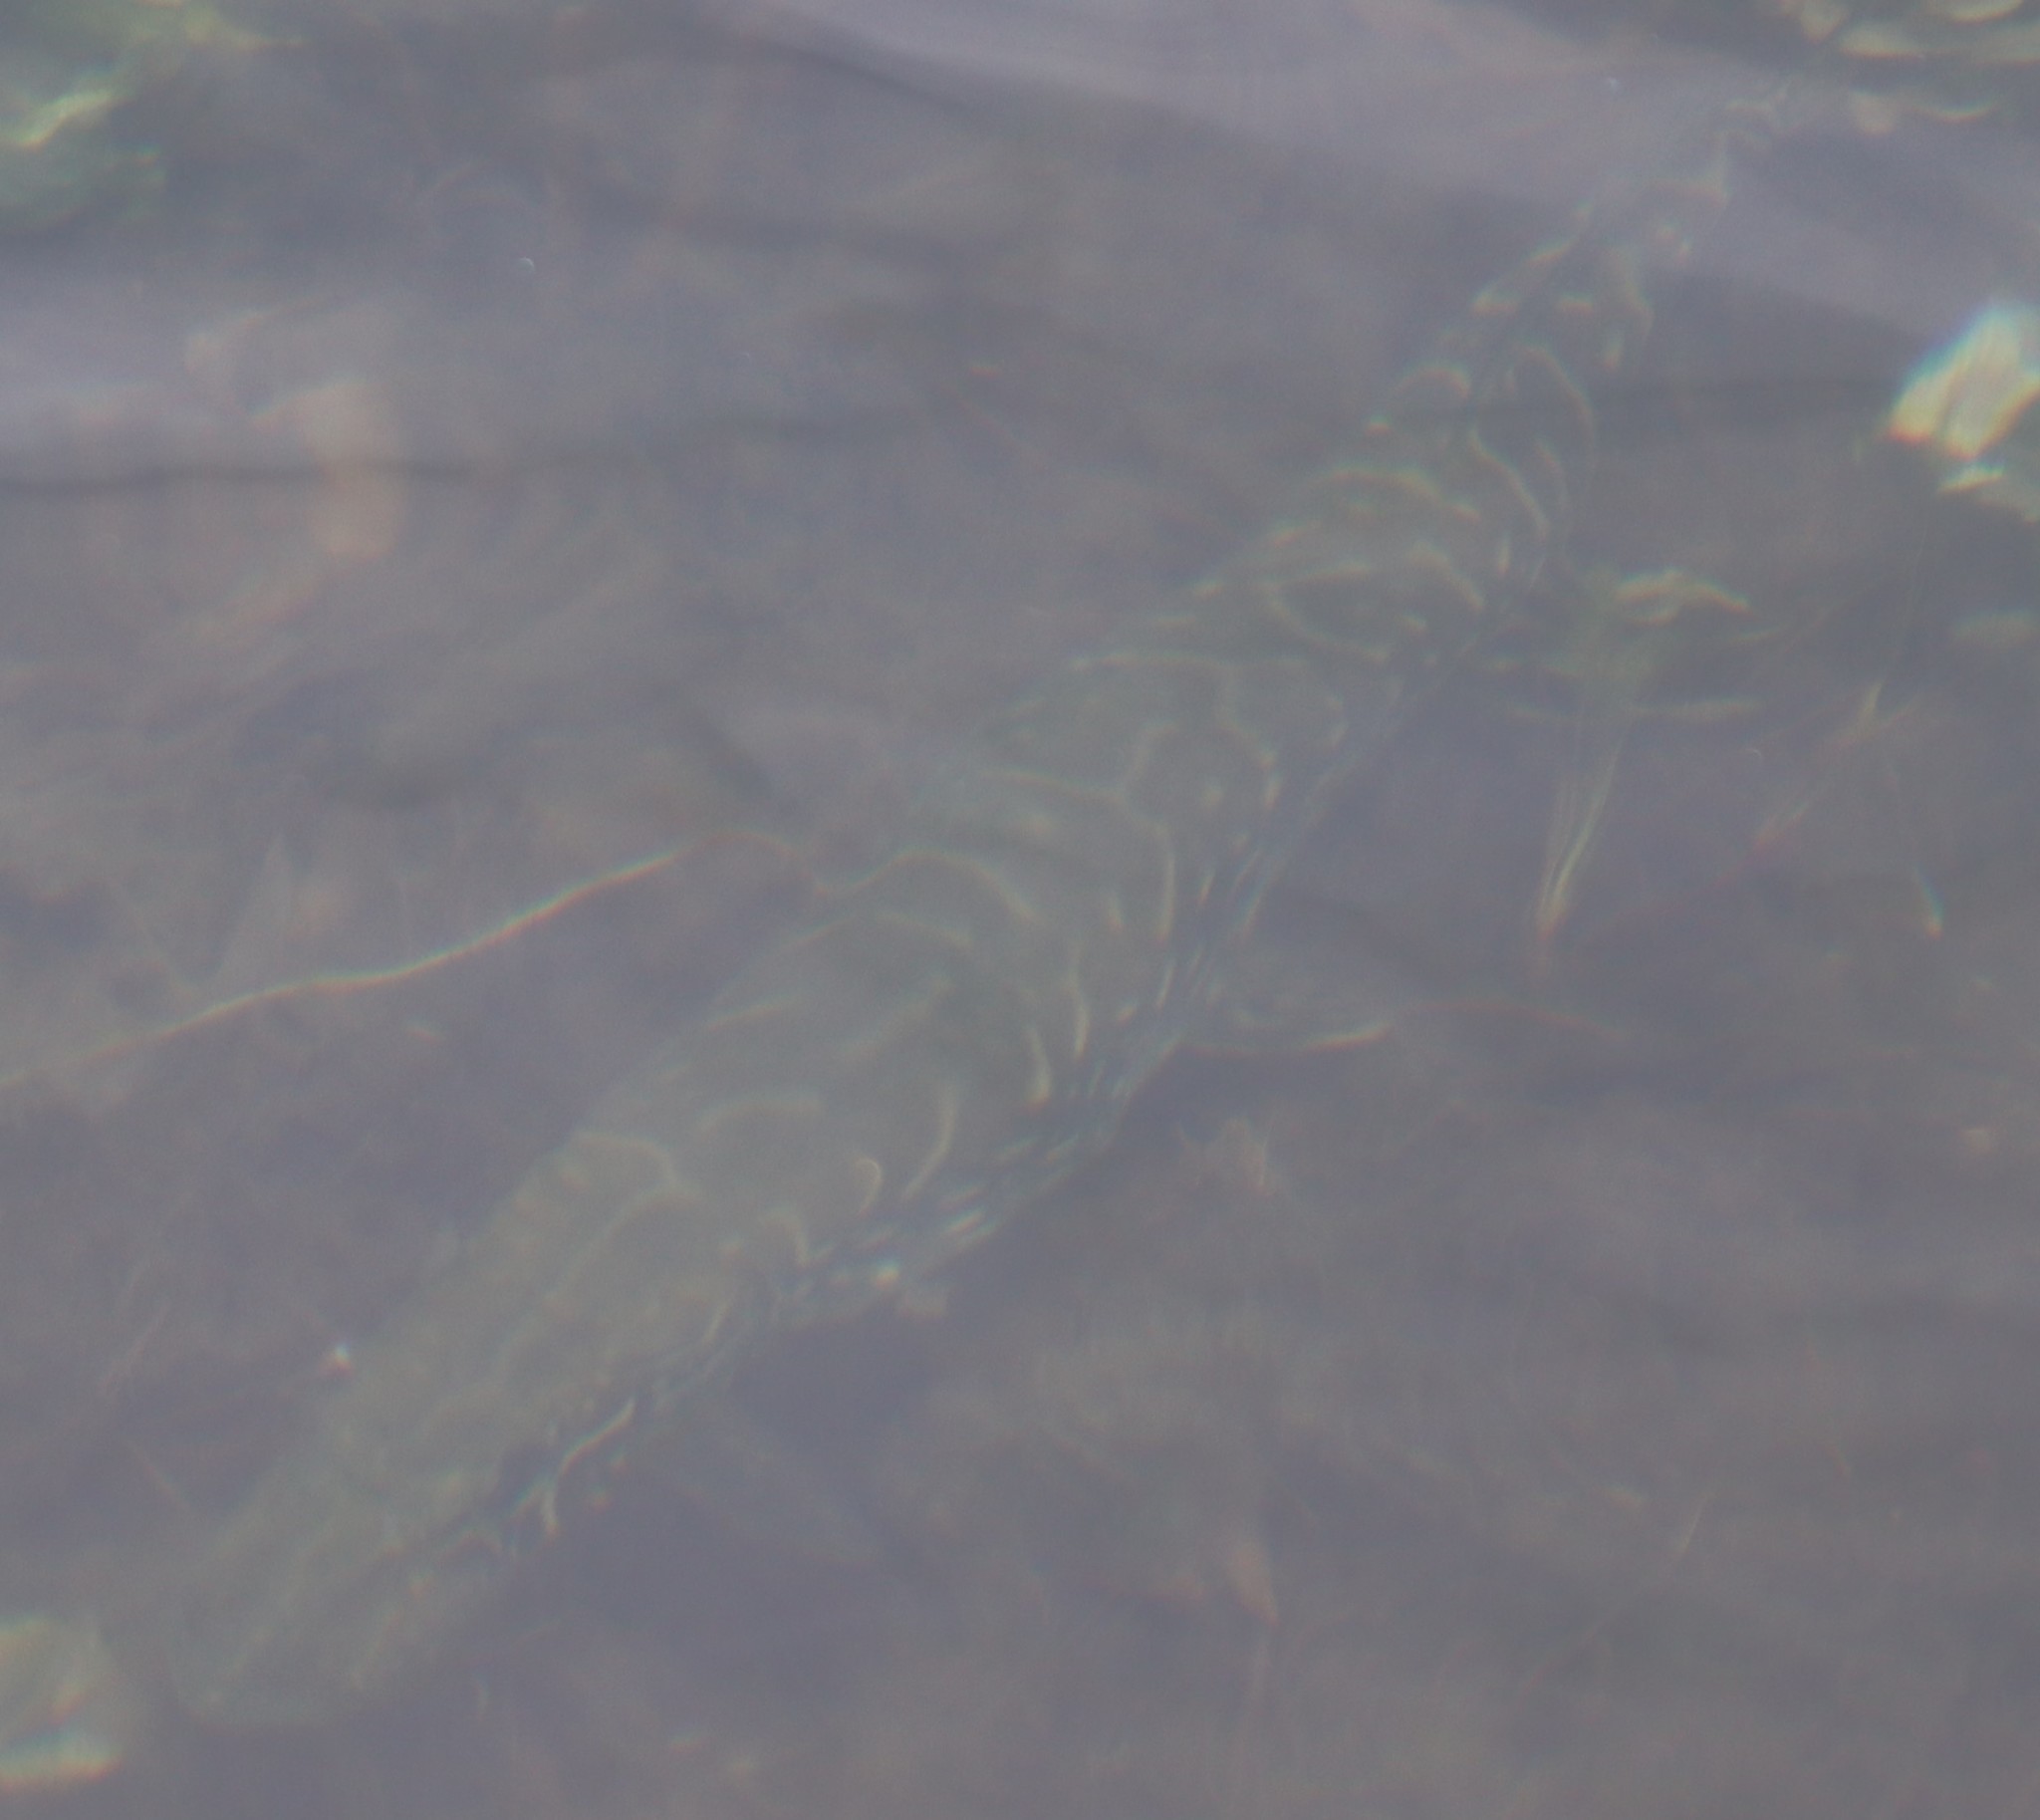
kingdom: Animalia
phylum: Chordata
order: Esociformes
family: Esocidae
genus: Esox
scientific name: Esox lucius
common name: Northern pike
